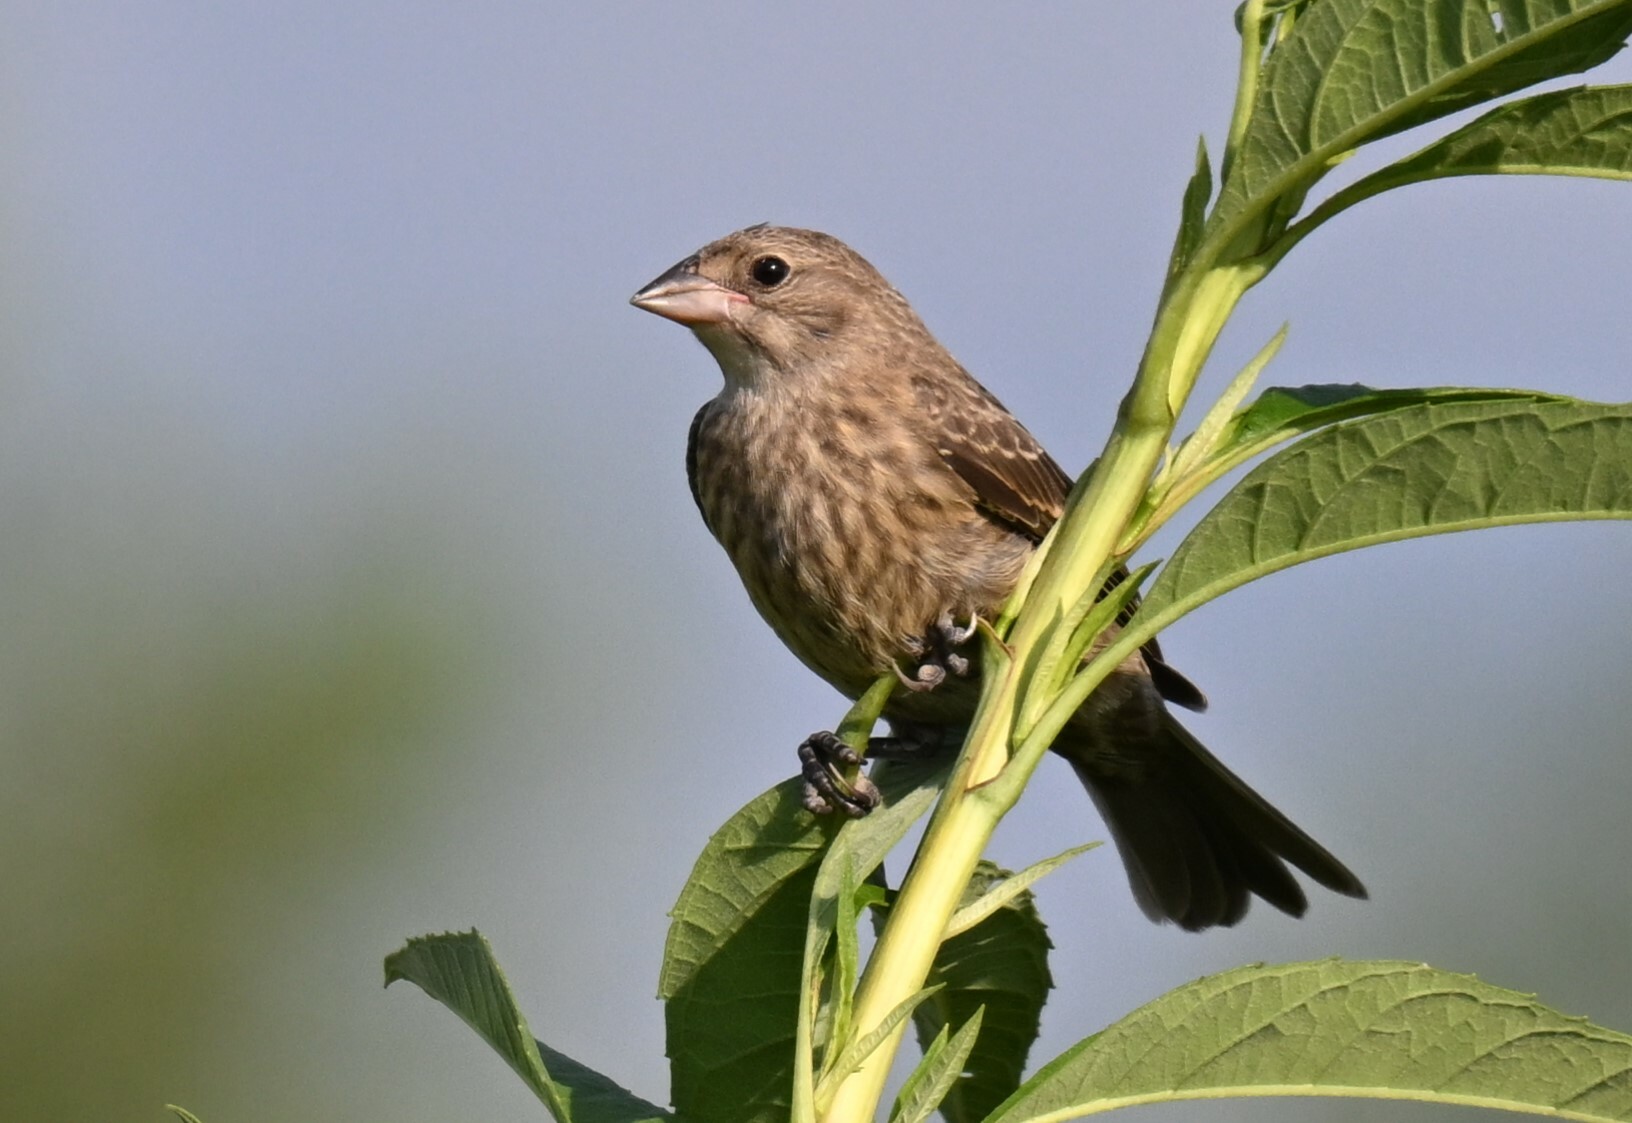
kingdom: Animalia
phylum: Chordata
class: Aves
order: Passeriformes
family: Icteridae
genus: Molothrus
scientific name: Molothrus ater
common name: Brown-headed cowbird
